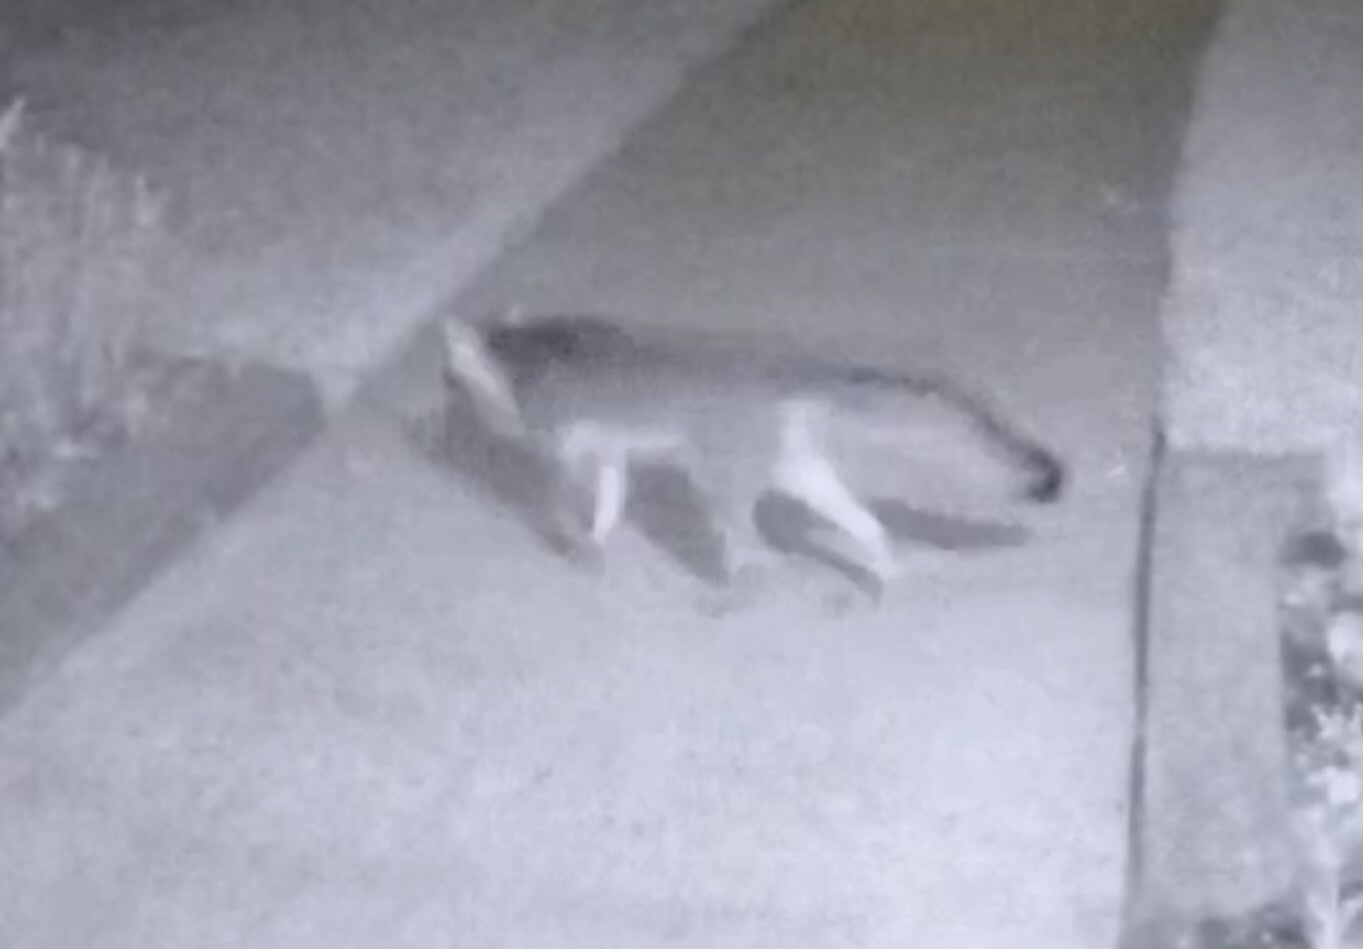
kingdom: Animalia
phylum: Chordata
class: Mammalia
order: Carnivora
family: Canidae
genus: Urocyon
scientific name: Urocyon cinereoargenteus
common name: Gray fox
